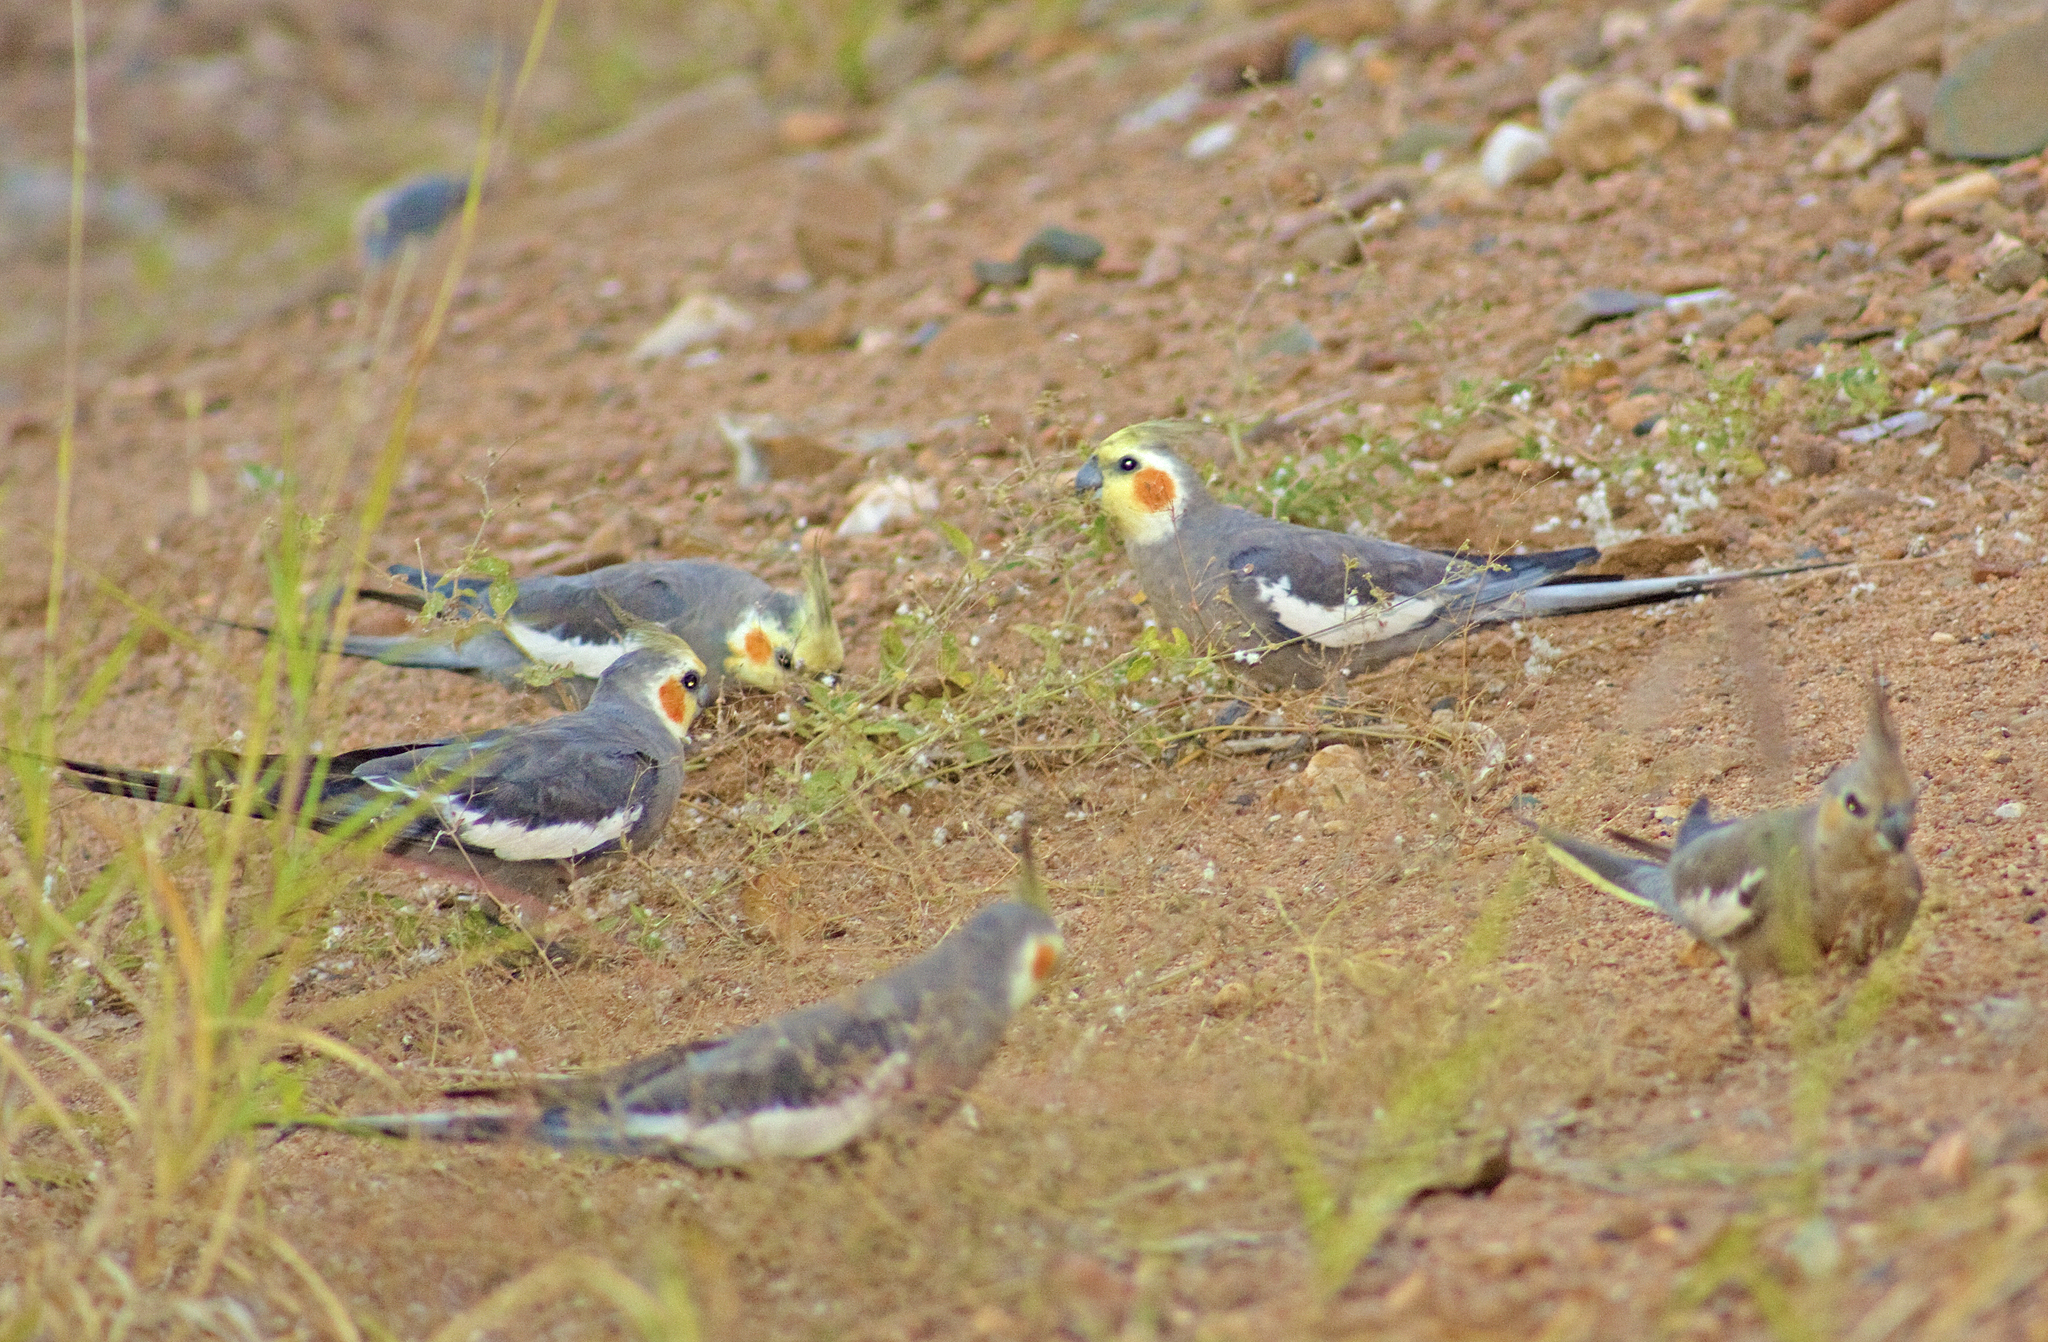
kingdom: Animalia
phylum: Chordata
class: Aves
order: Psittaciformes
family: Psittacidae
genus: Nymphicus
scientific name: Nymphicus hollandicus
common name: Cockatiel
